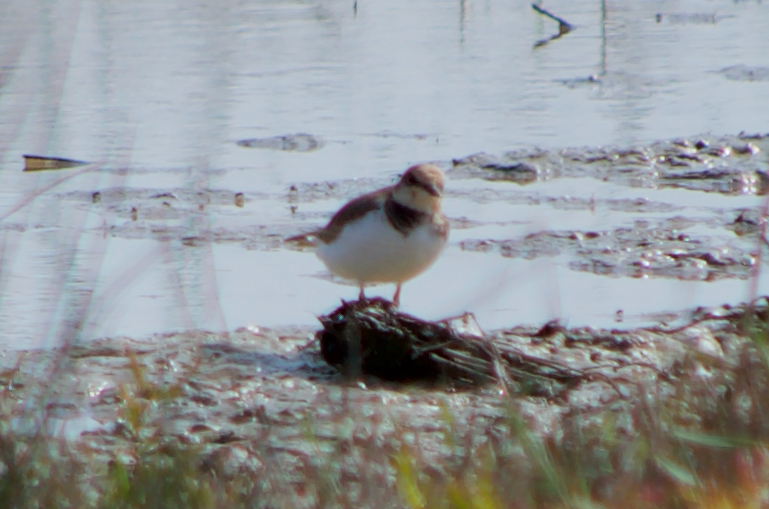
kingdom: Animalia
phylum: Chordata
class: Aves
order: Charadriiformes
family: Charadriidae
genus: Charadrius
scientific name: Charadrius dubius
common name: Little ringed plover
